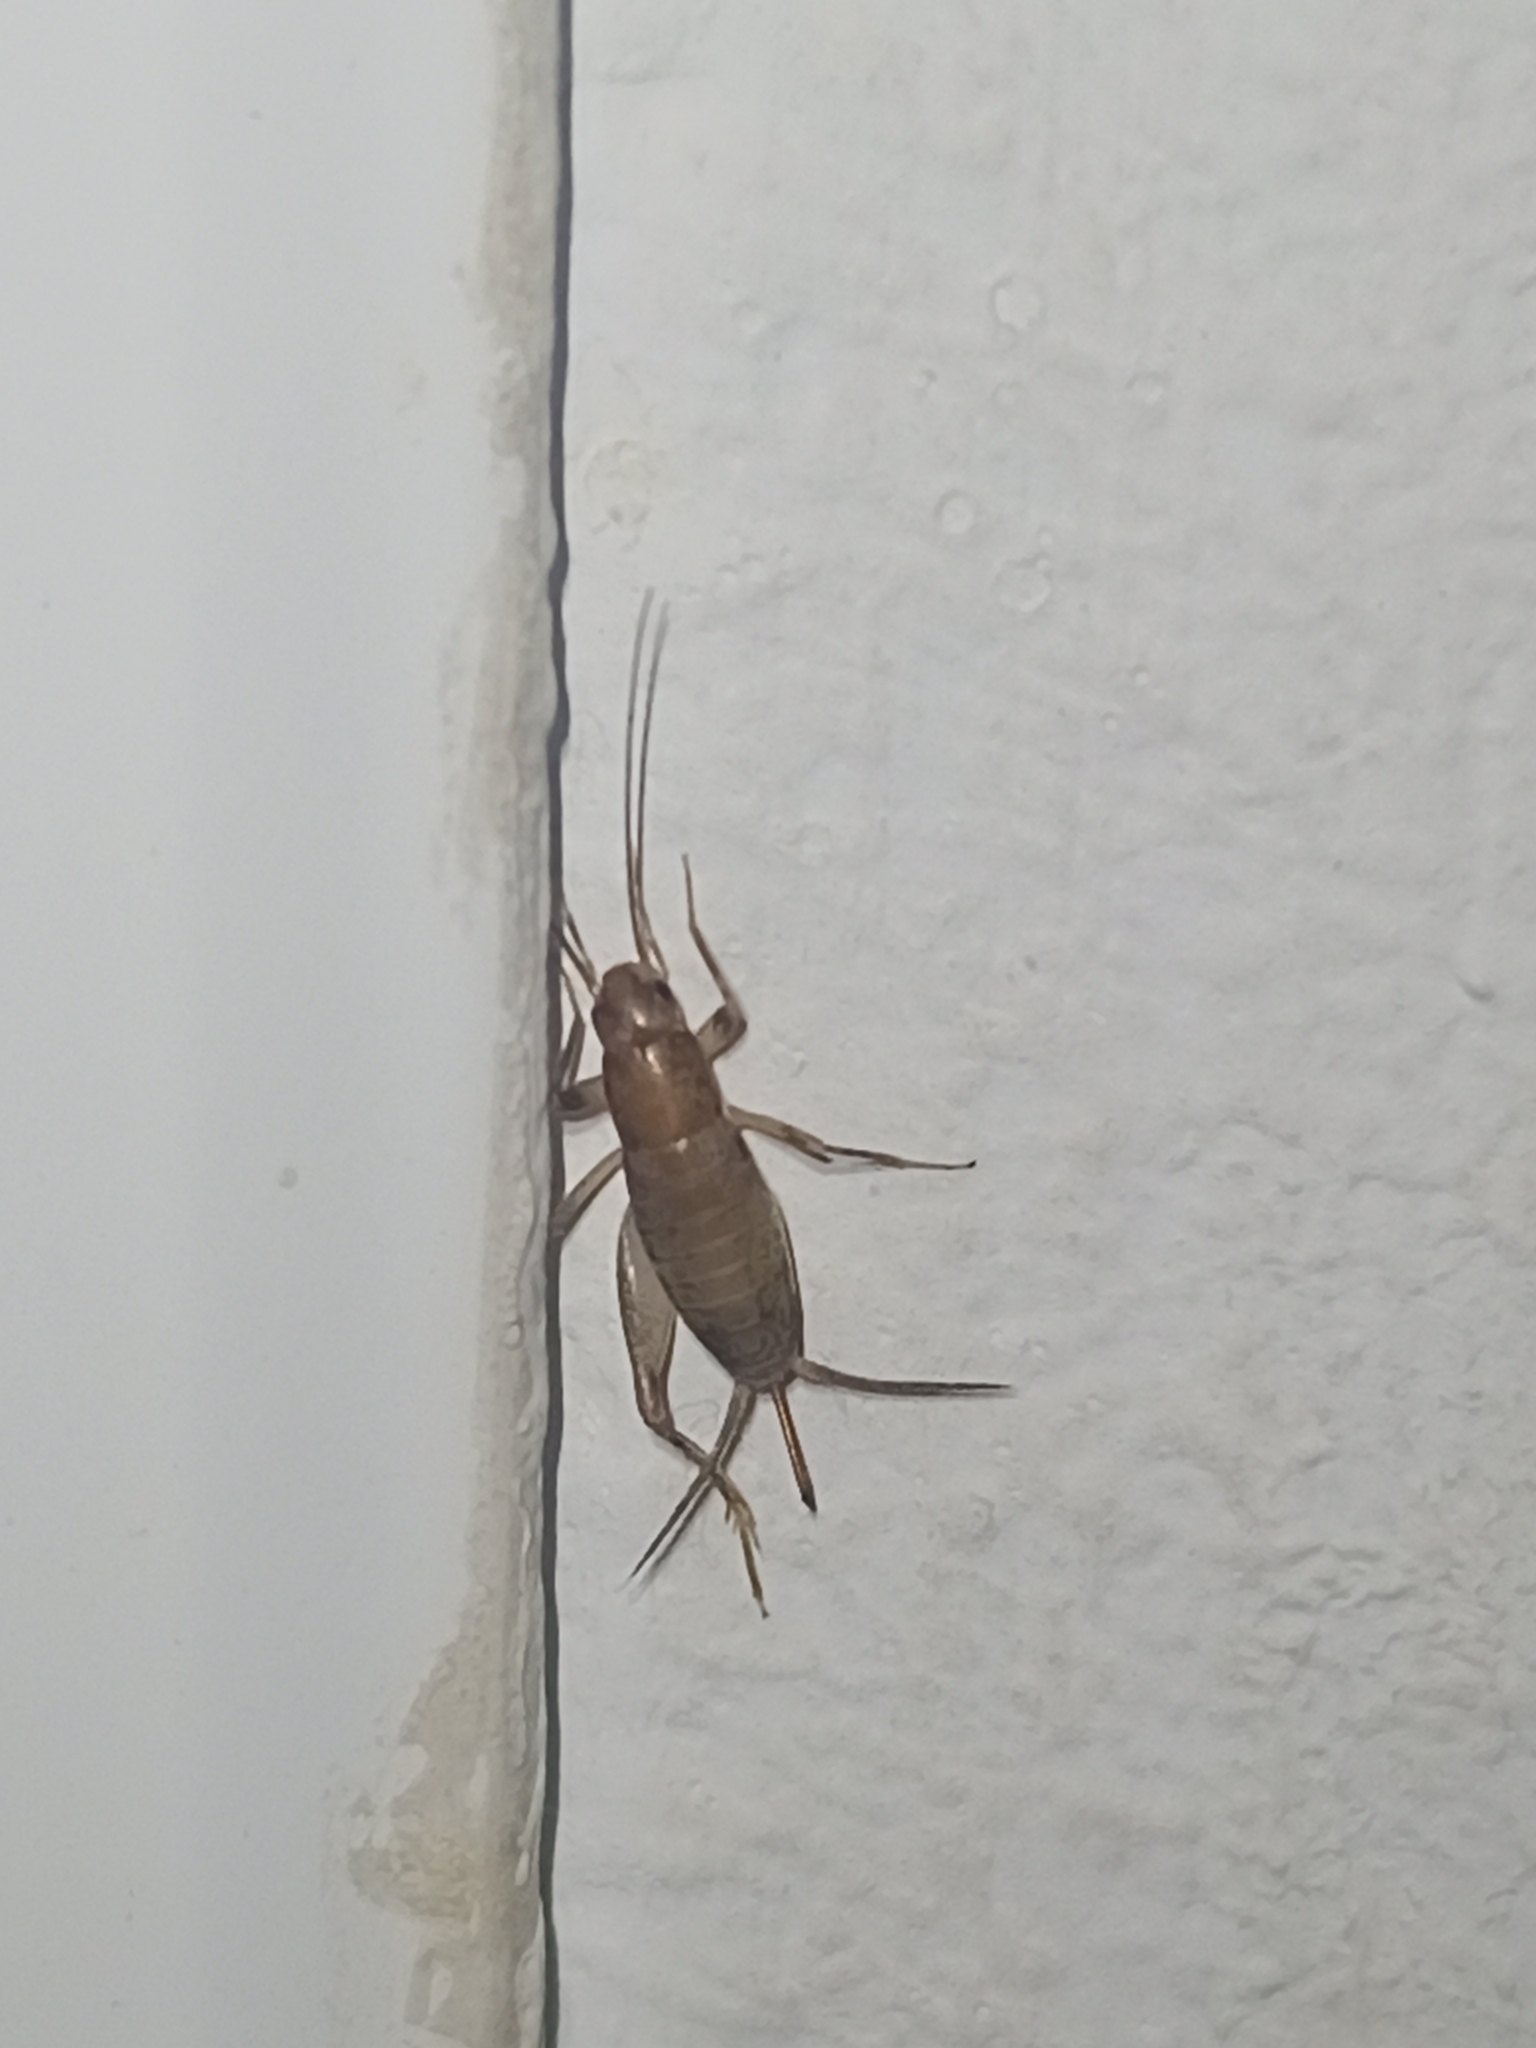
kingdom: Animalia
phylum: Arthropoda
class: Insecta
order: Orthoptera
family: Mogoplistidae
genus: Cycloptiloides
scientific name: Cycloptiloides canariensis
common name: Canarian tiny cricket
